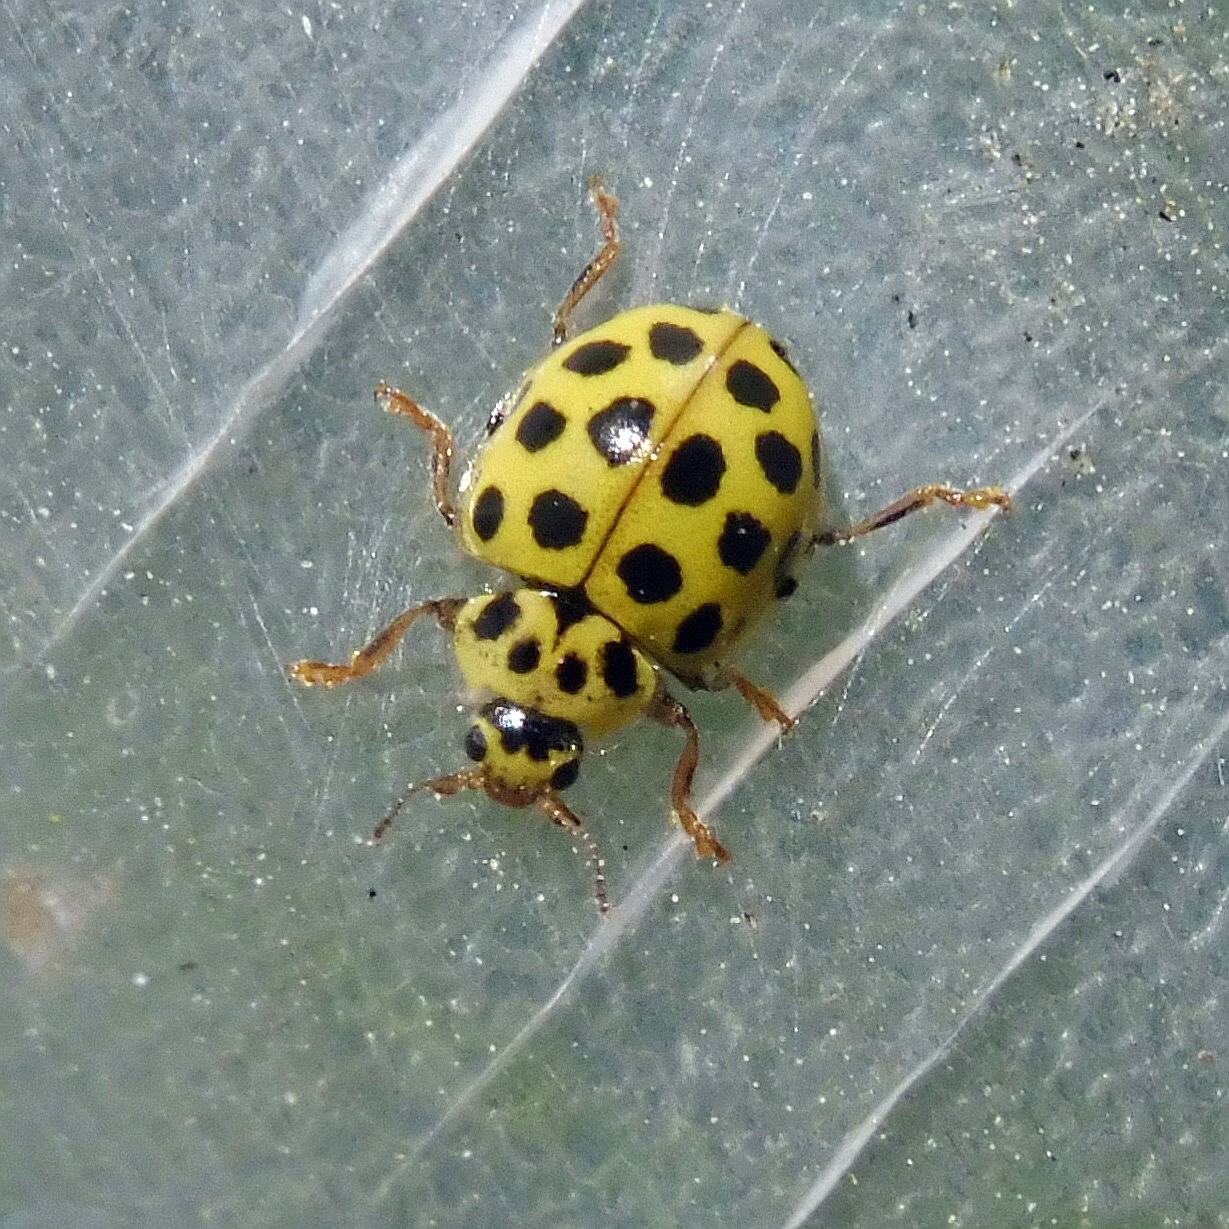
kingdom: Animalia
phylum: Arthropoda
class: Insecta
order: Coleoptera
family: Coccinellidae
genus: Psyllobora
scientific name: Psyllobora vigintiduopunctata
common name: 22-spot ladybird
